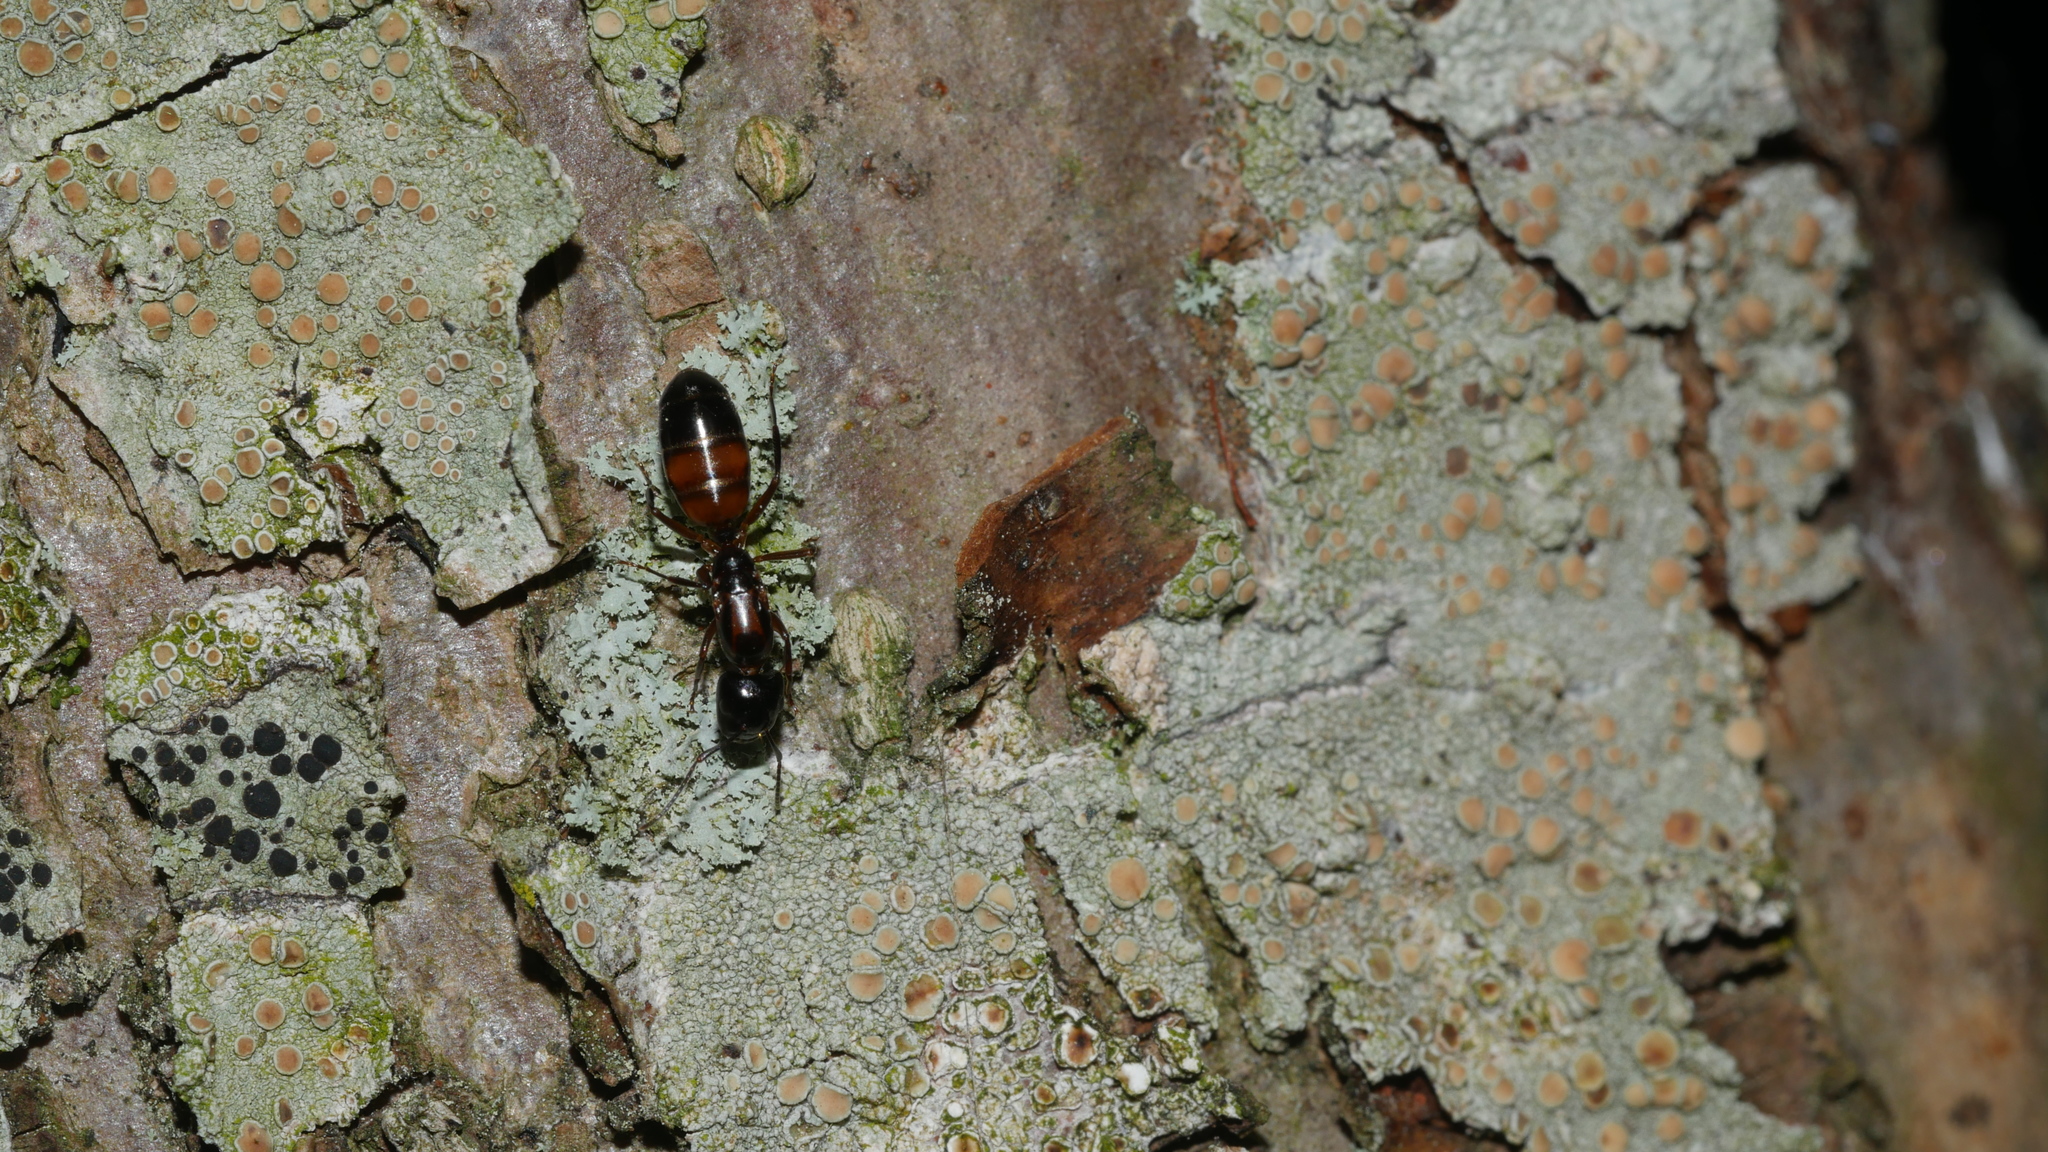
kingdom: Animalia
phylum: Arthropoda
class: Insecta
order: Hymenoptera
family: Formicidae
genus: Camponotus
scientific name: Camponotus nearcticus
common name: Smaller carpenter ant
